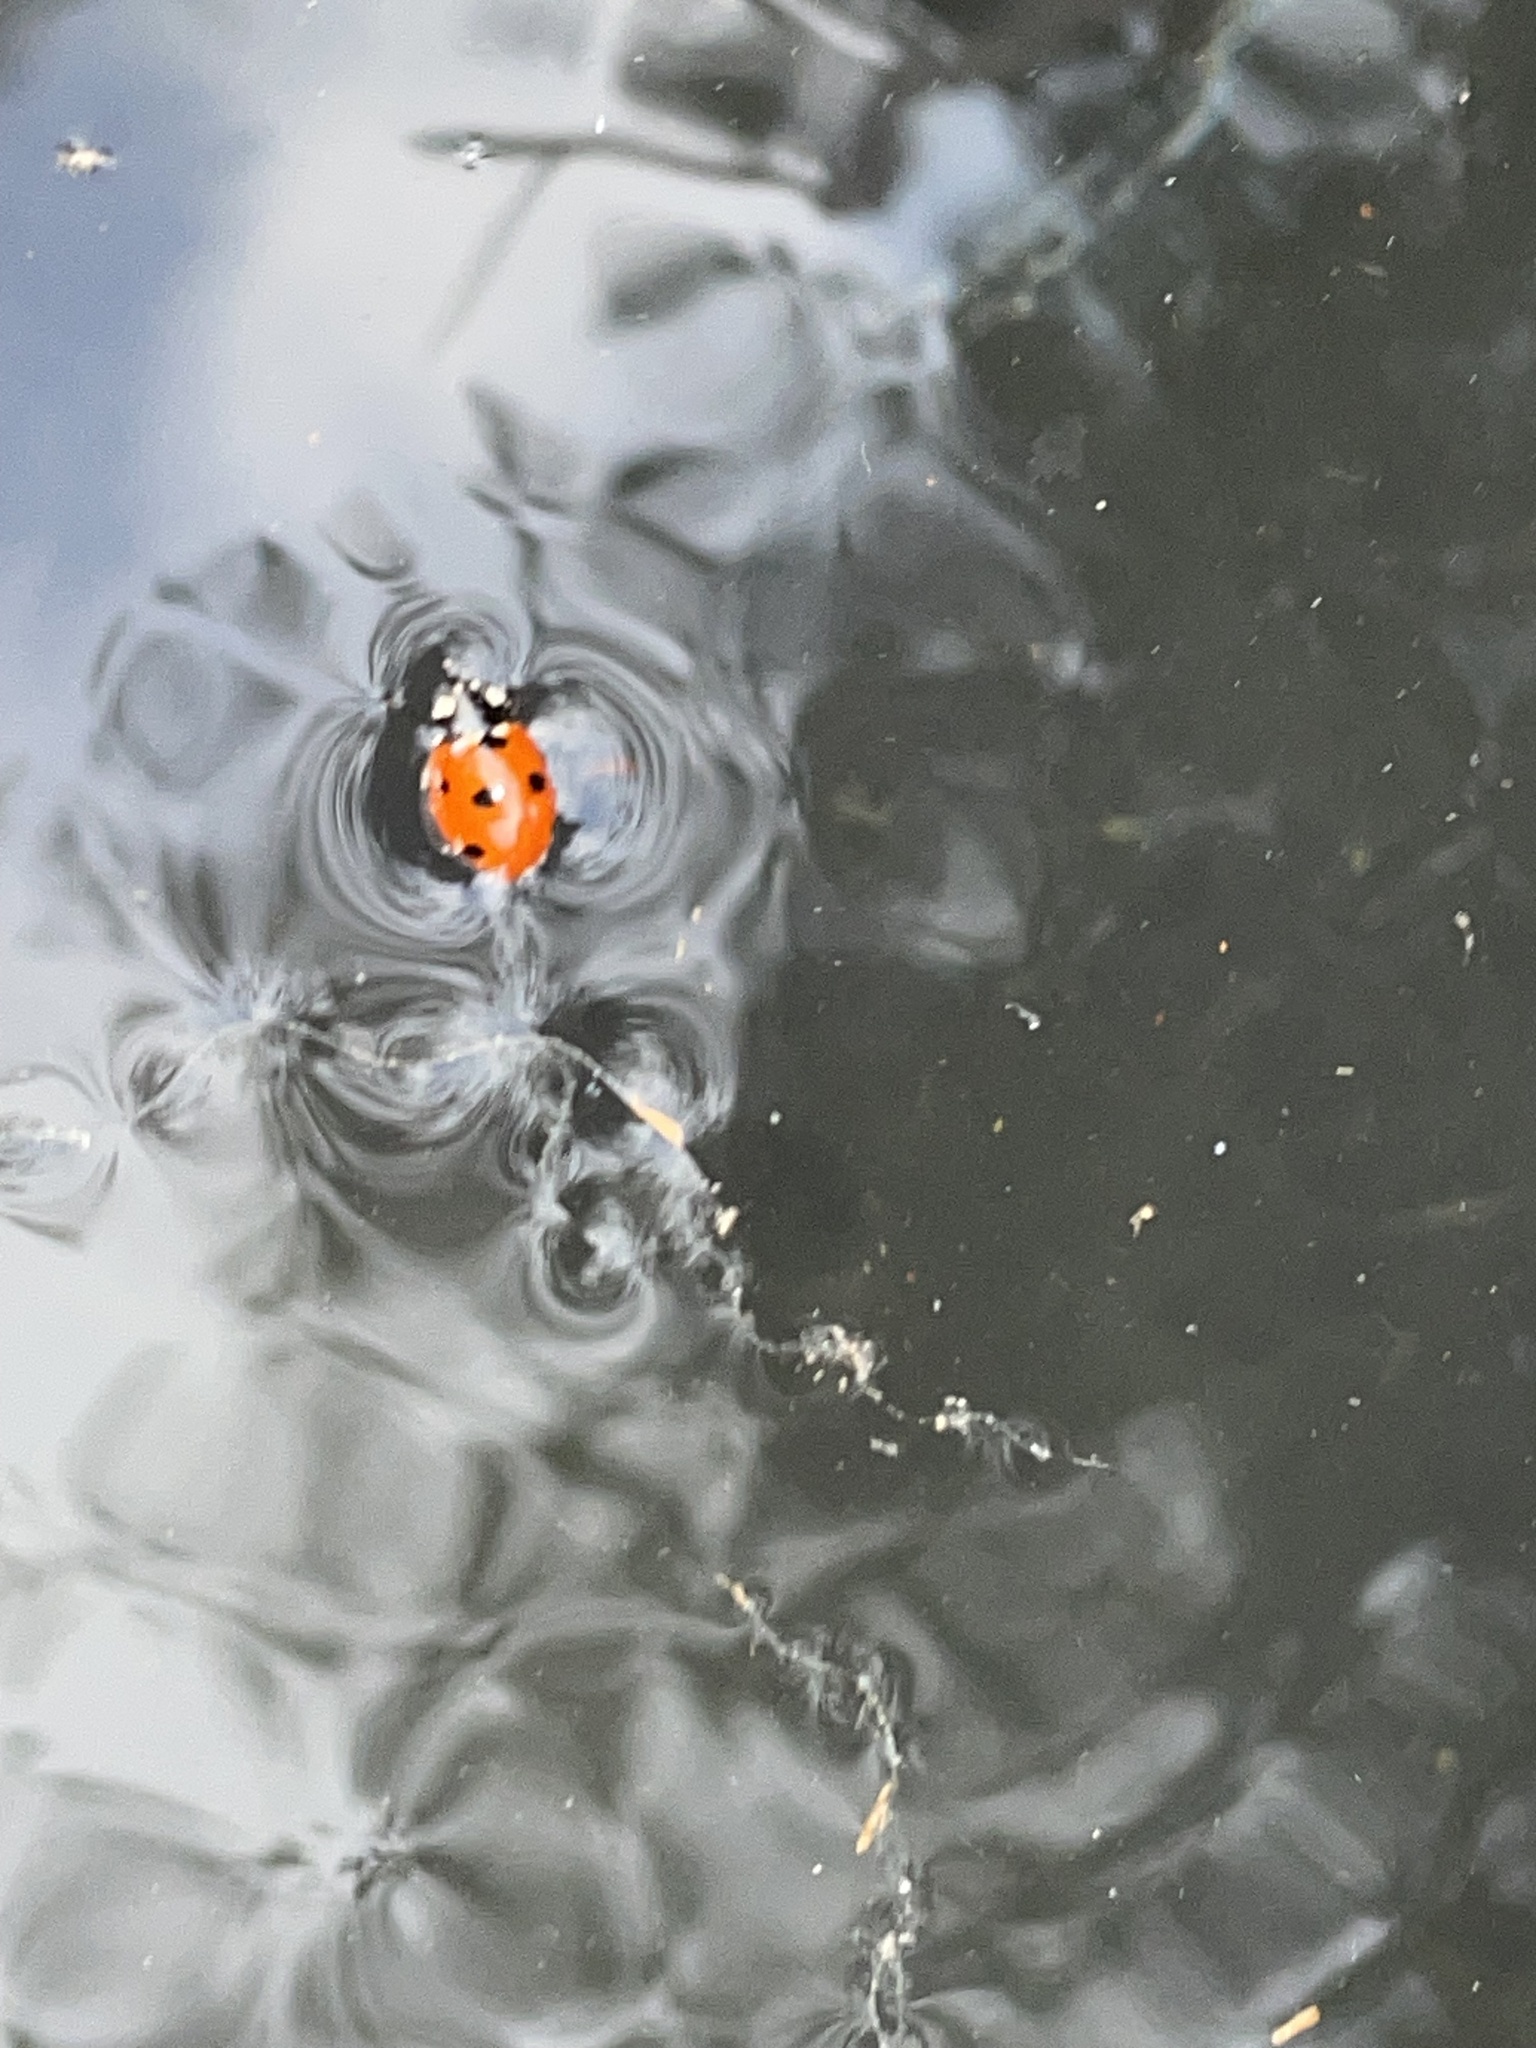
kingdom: Animalia
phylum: Arthropoda
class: Insecta
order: Coleoptera
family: Coccinellidae
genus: Coccinella
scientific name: Coccinella septempunctata
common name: Sevenspotted lady beetle
